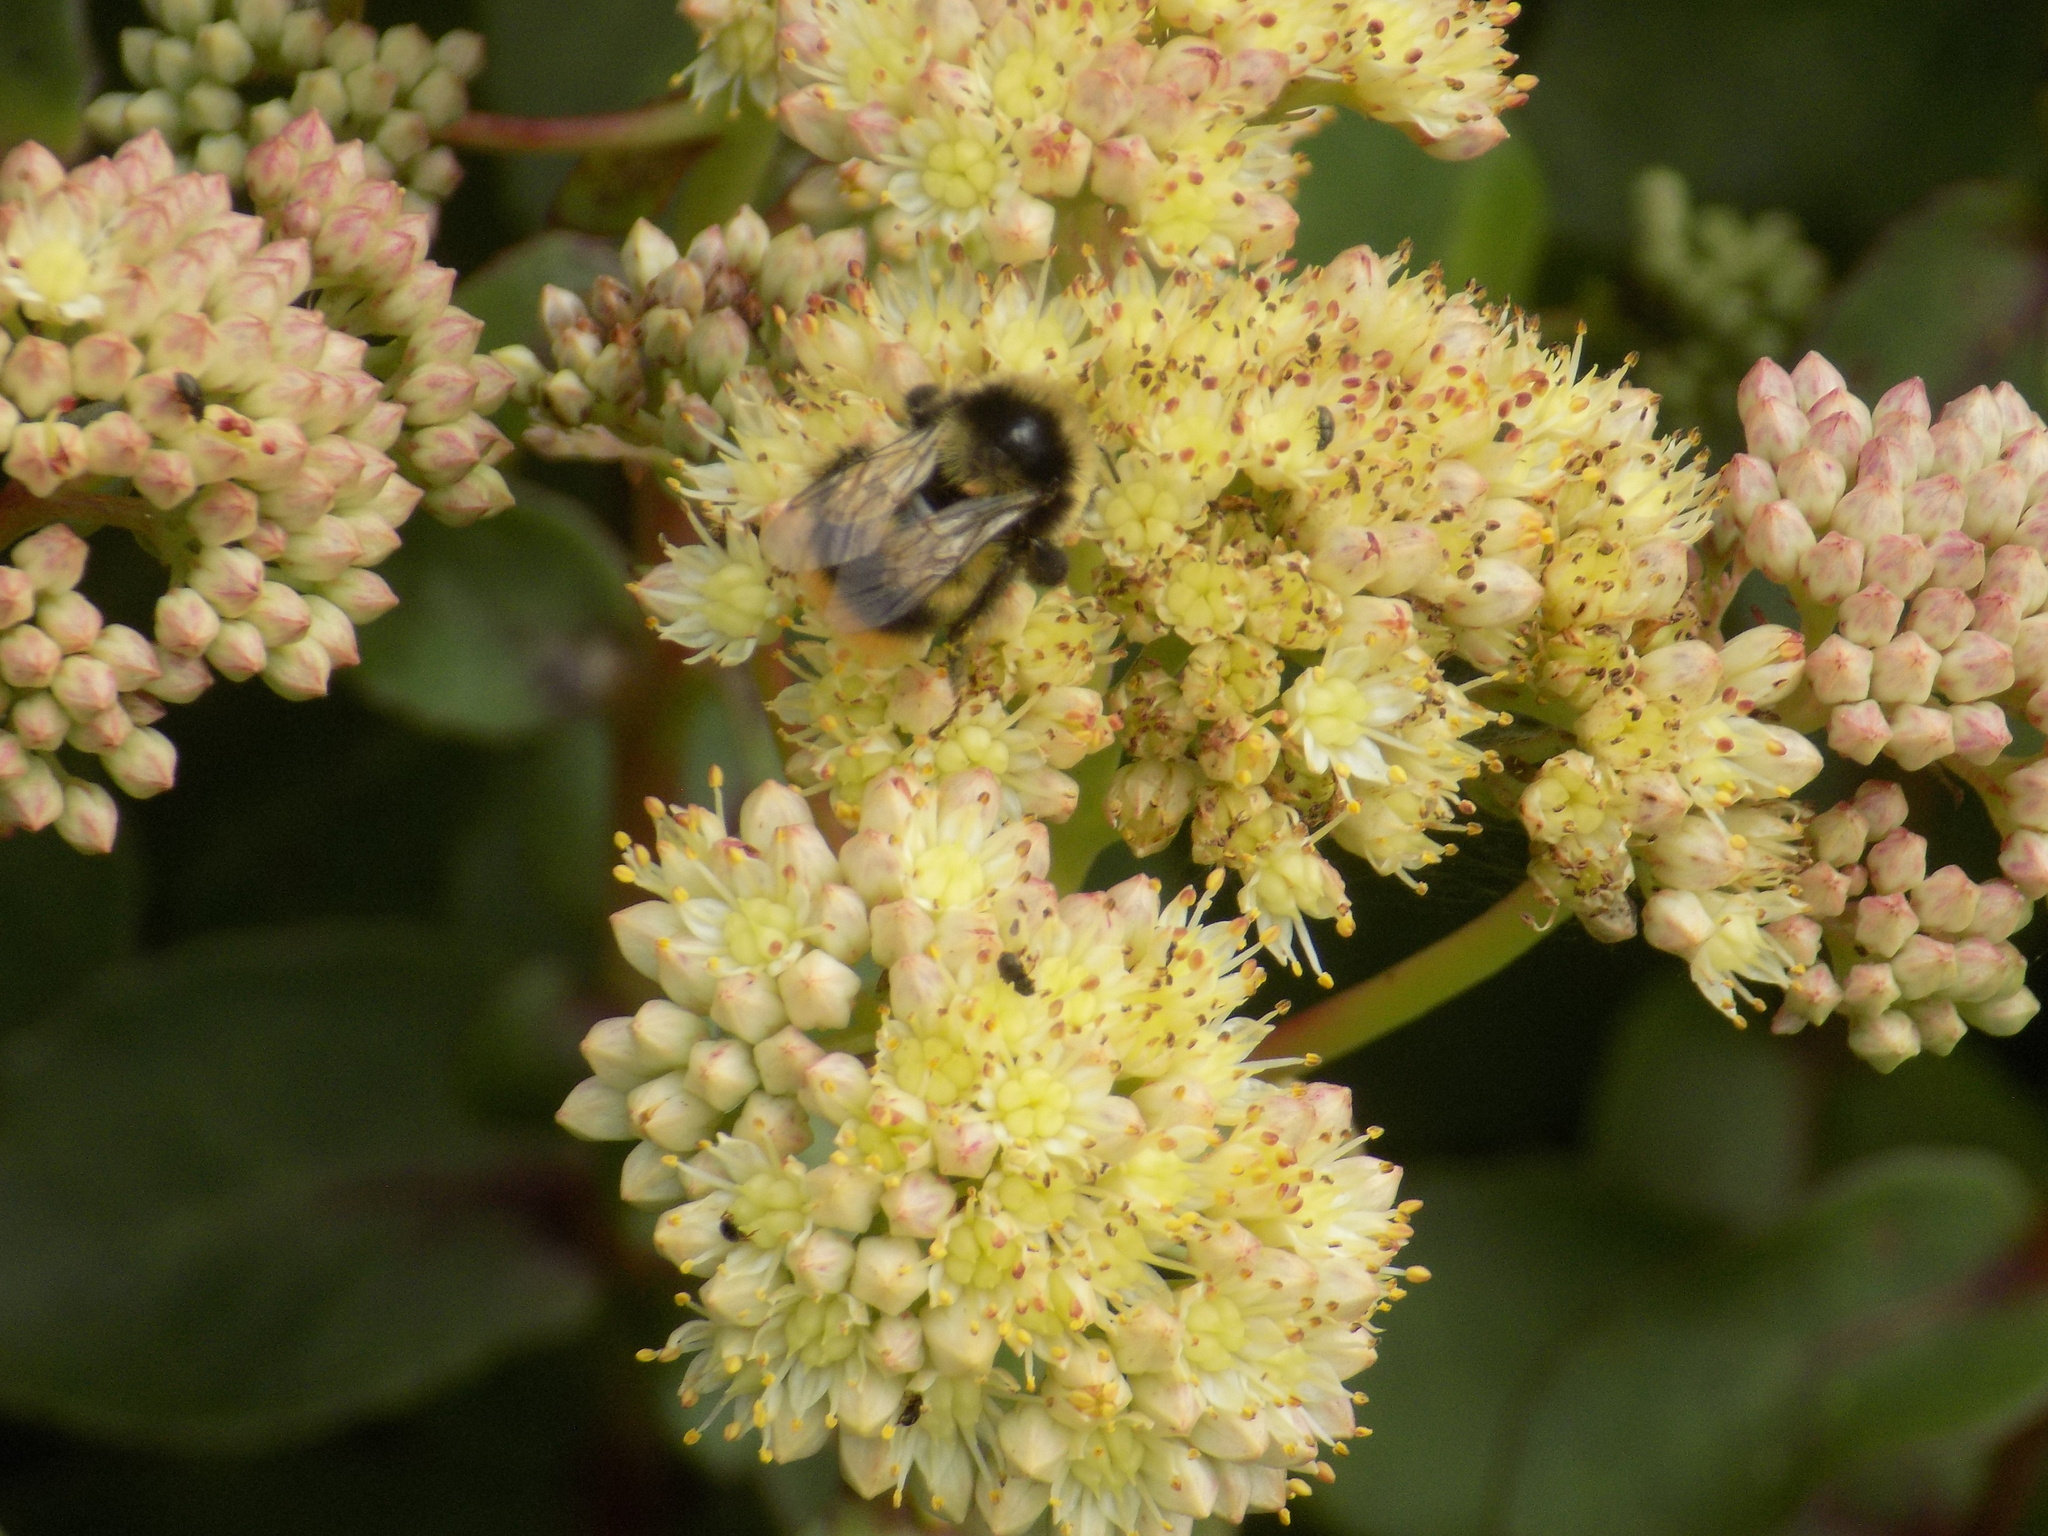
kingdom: Animalia
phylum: Arthropoda
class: Insecta
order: Hymenoptera
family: Apidae
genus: Bombus
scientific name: Bombus sichelii
